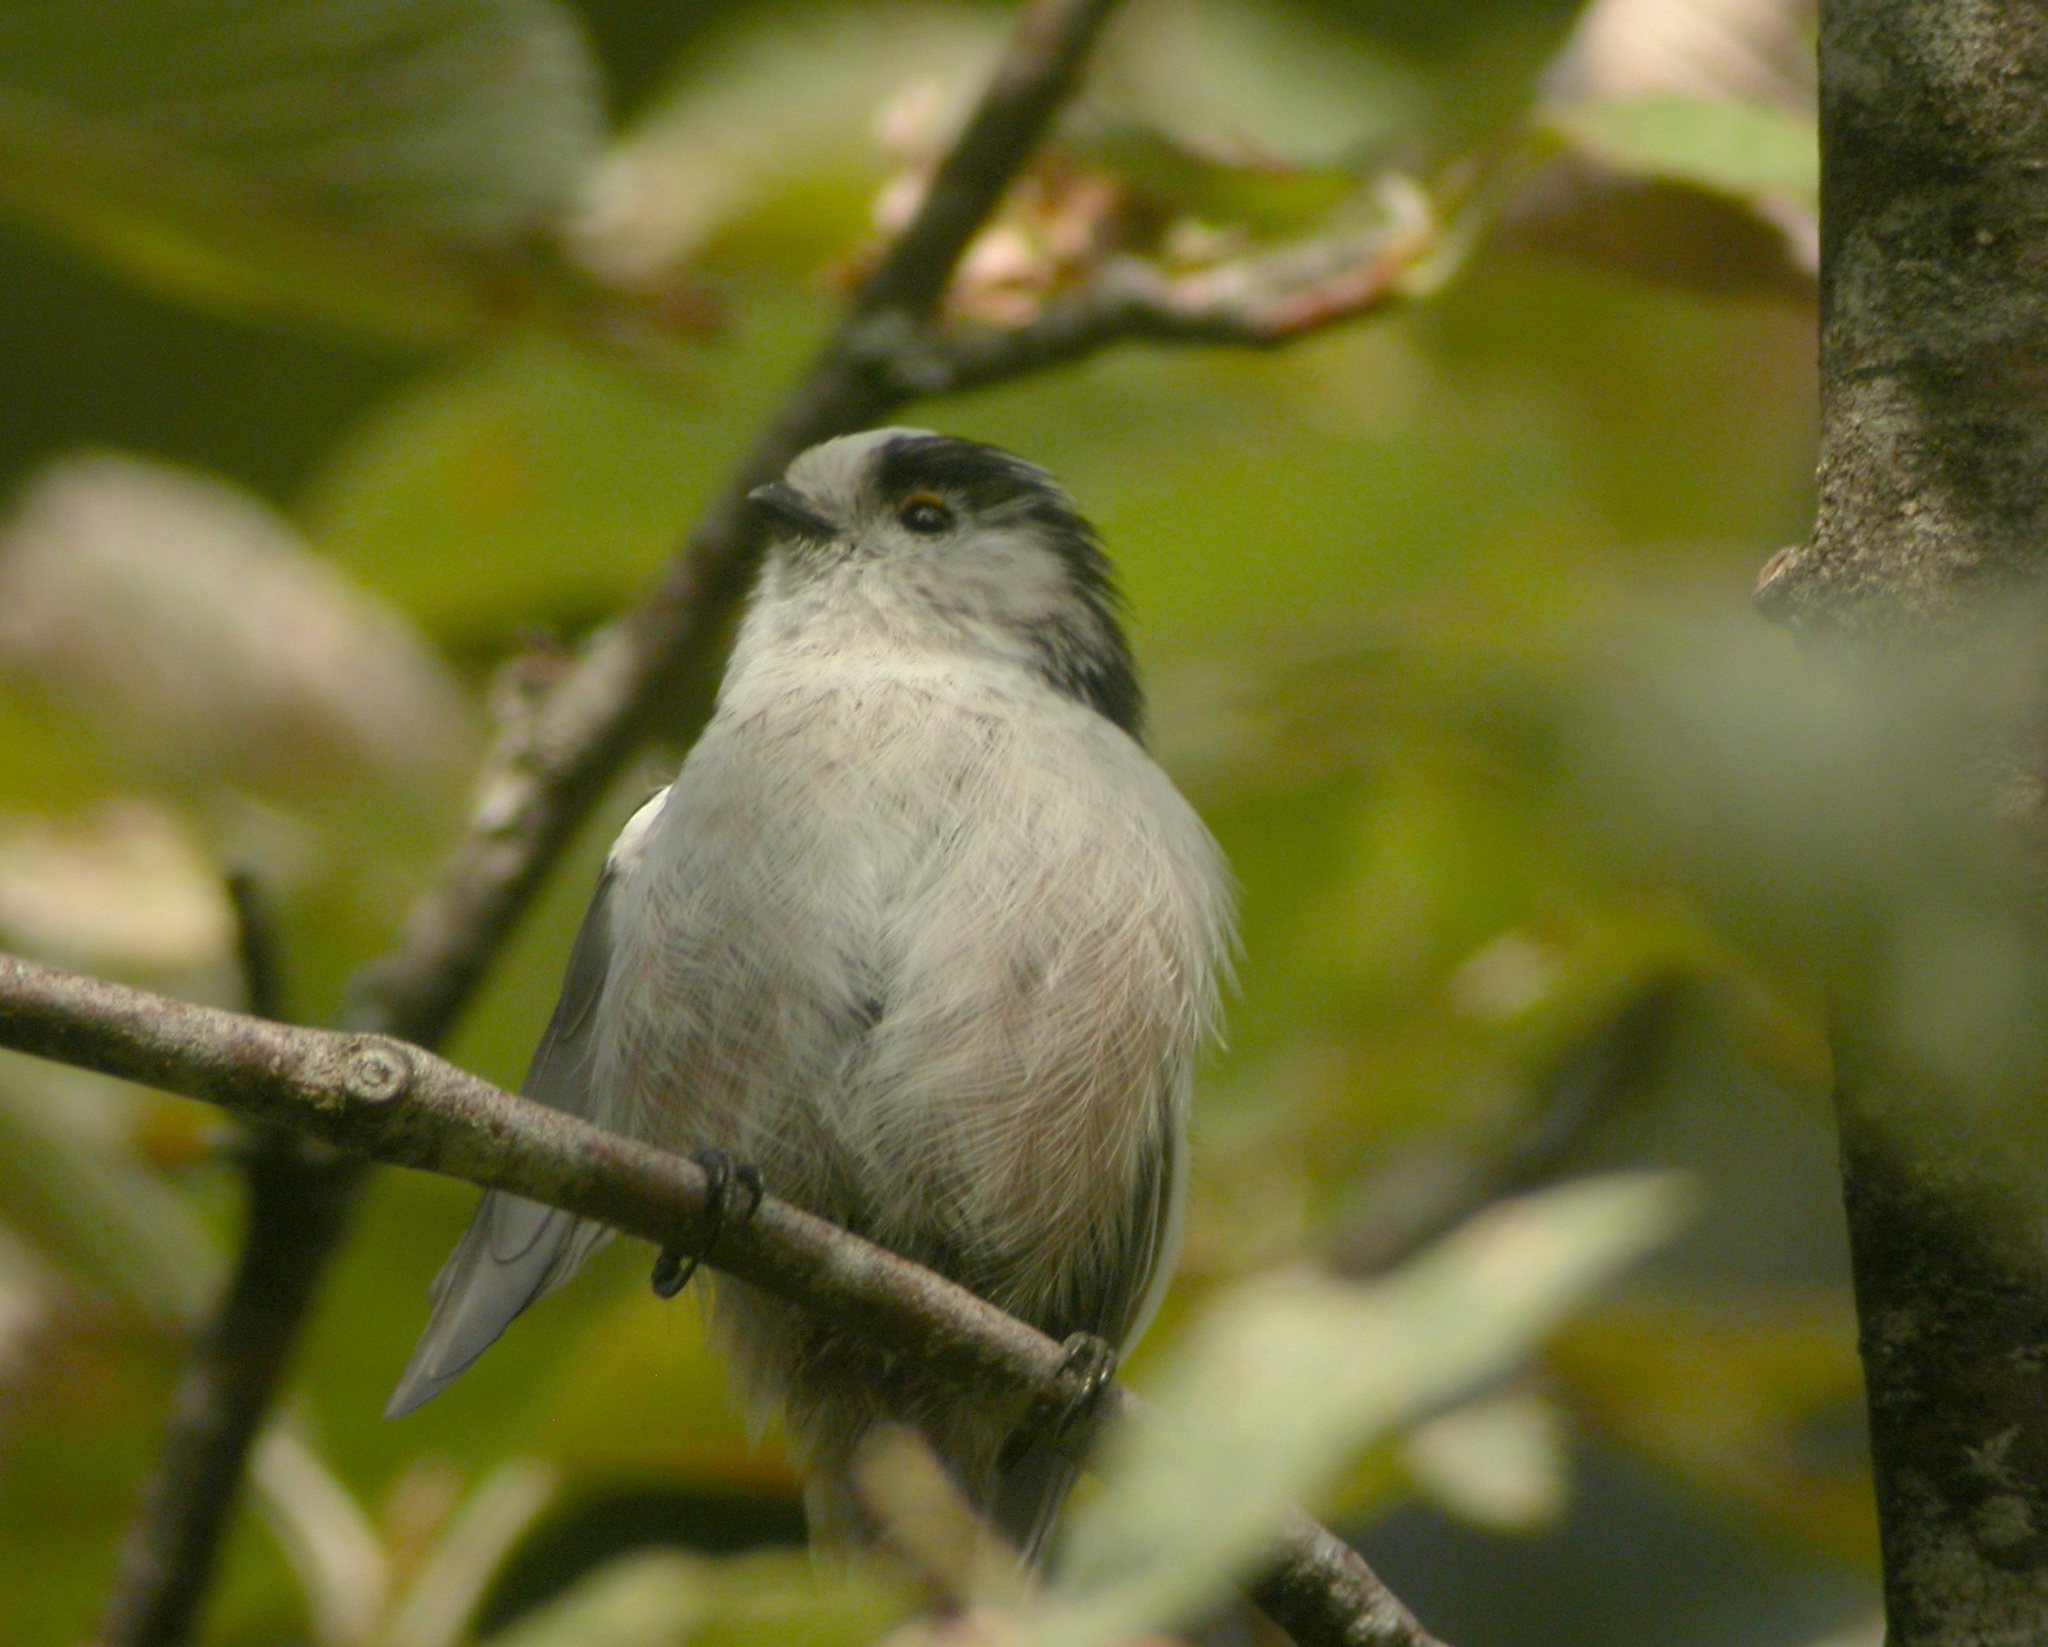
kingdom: Animalia
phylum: Chordata
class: Aves
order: Passeriformes
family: Aegithalidae
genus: Aegithalos
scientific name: Aegithalos caudatus
